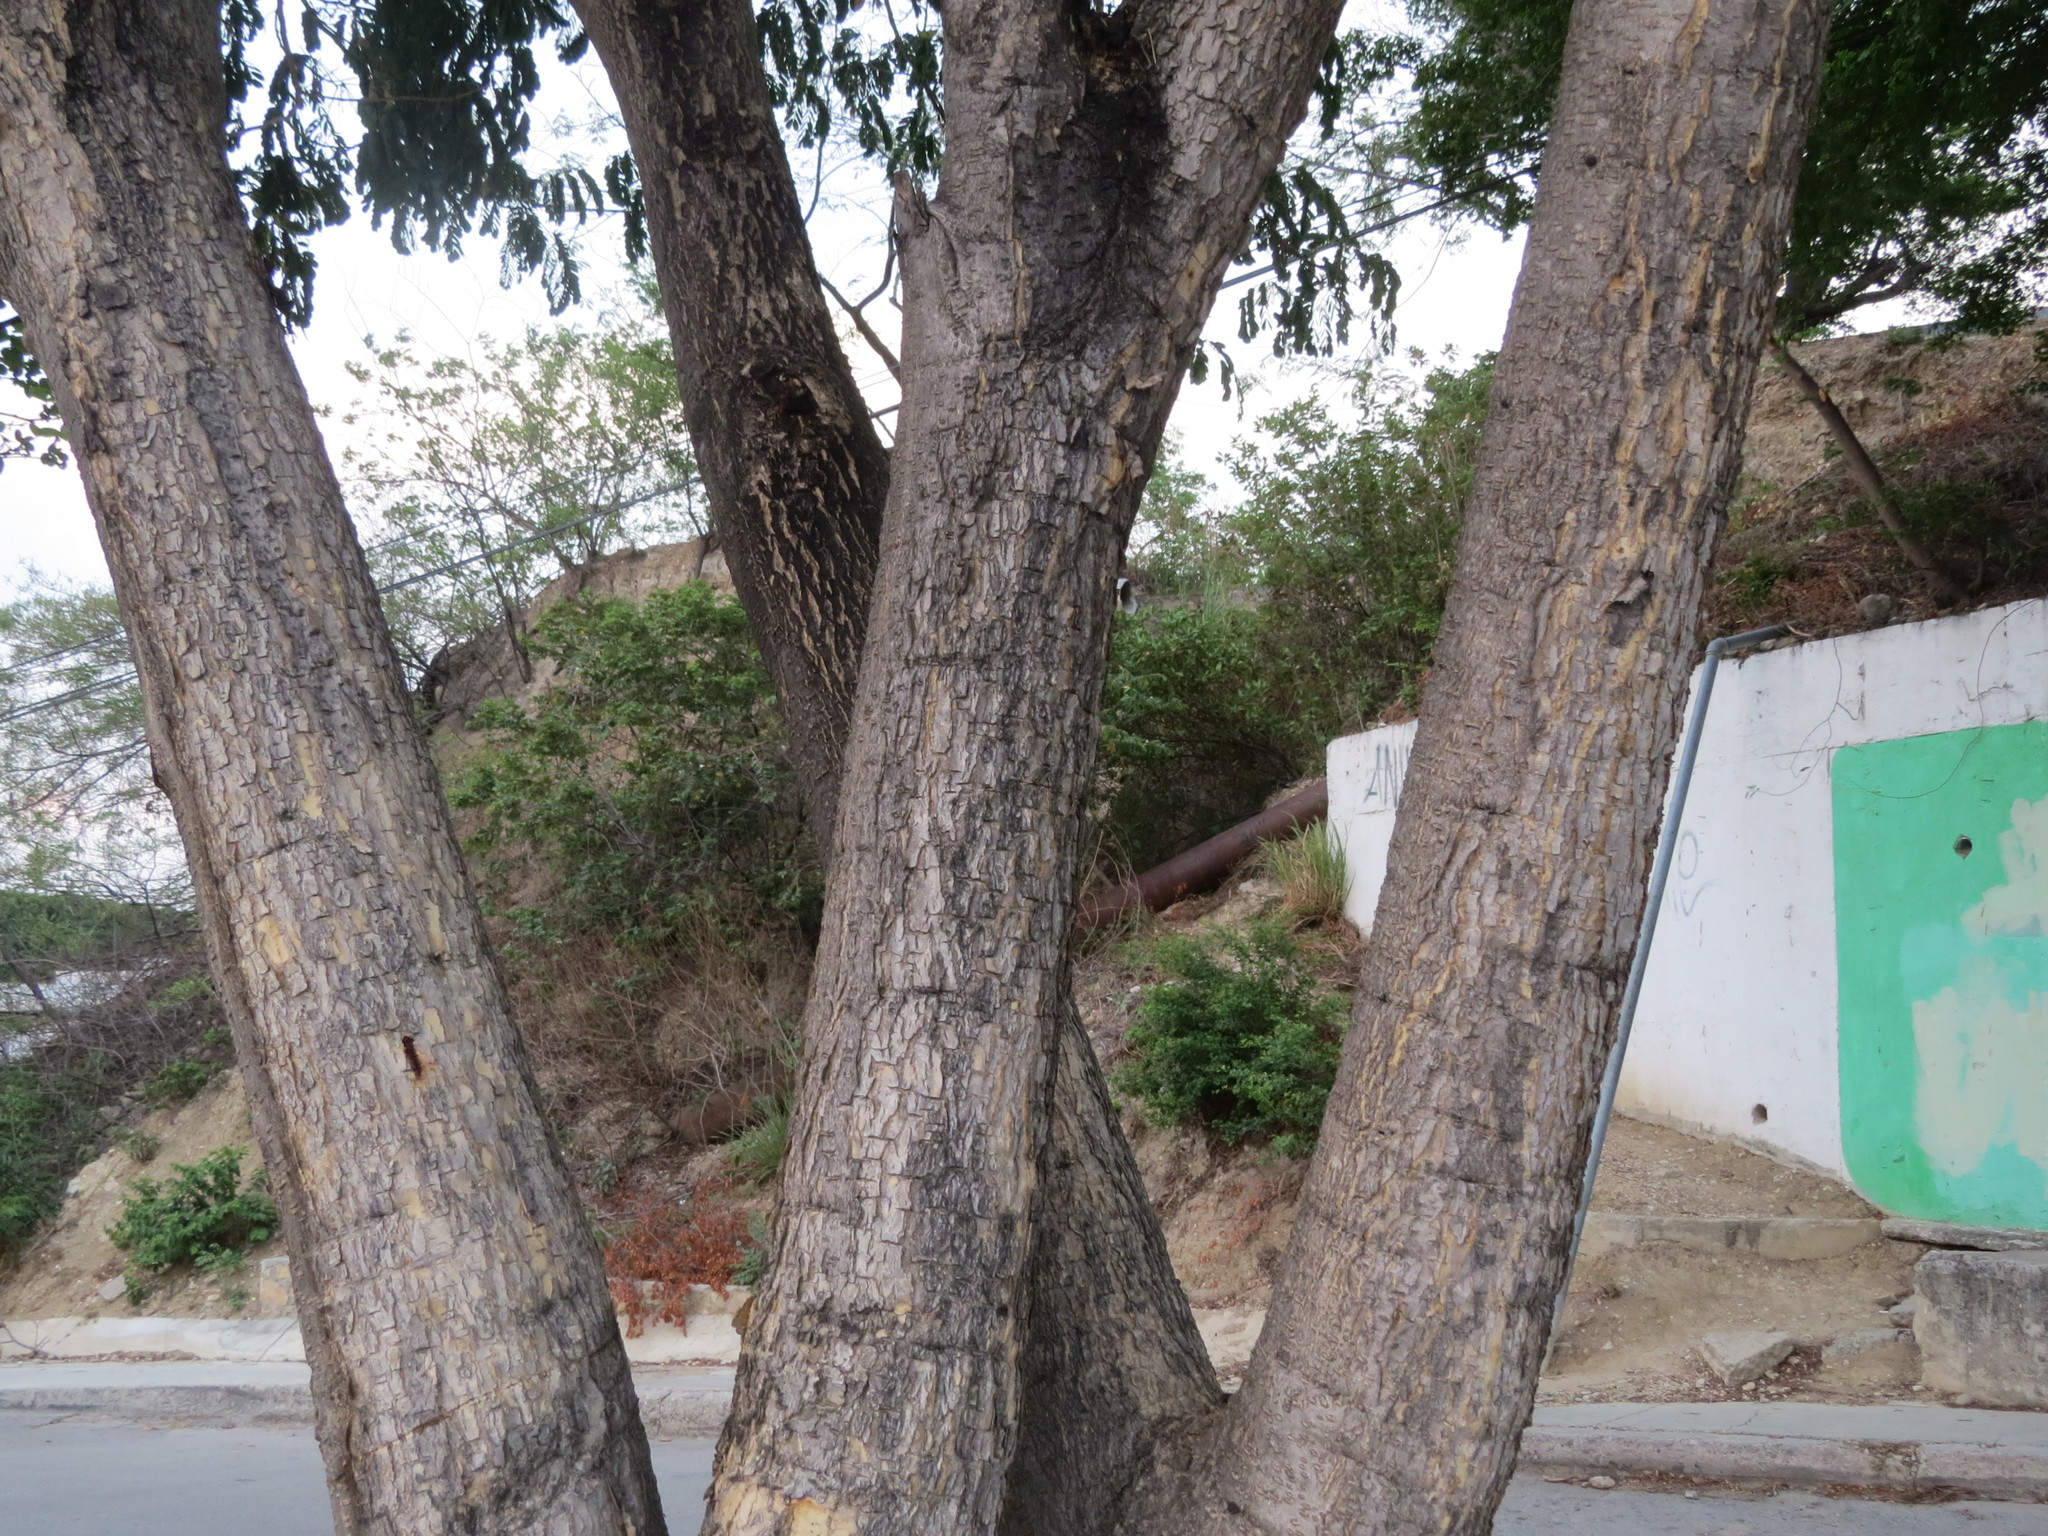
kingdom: Plantae
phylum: Tracheophyta
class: Magnoliopsida
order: Fabales
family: Fabaceae
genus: Albizia
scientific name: Albizia lebbeck
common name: Woman's tongue
